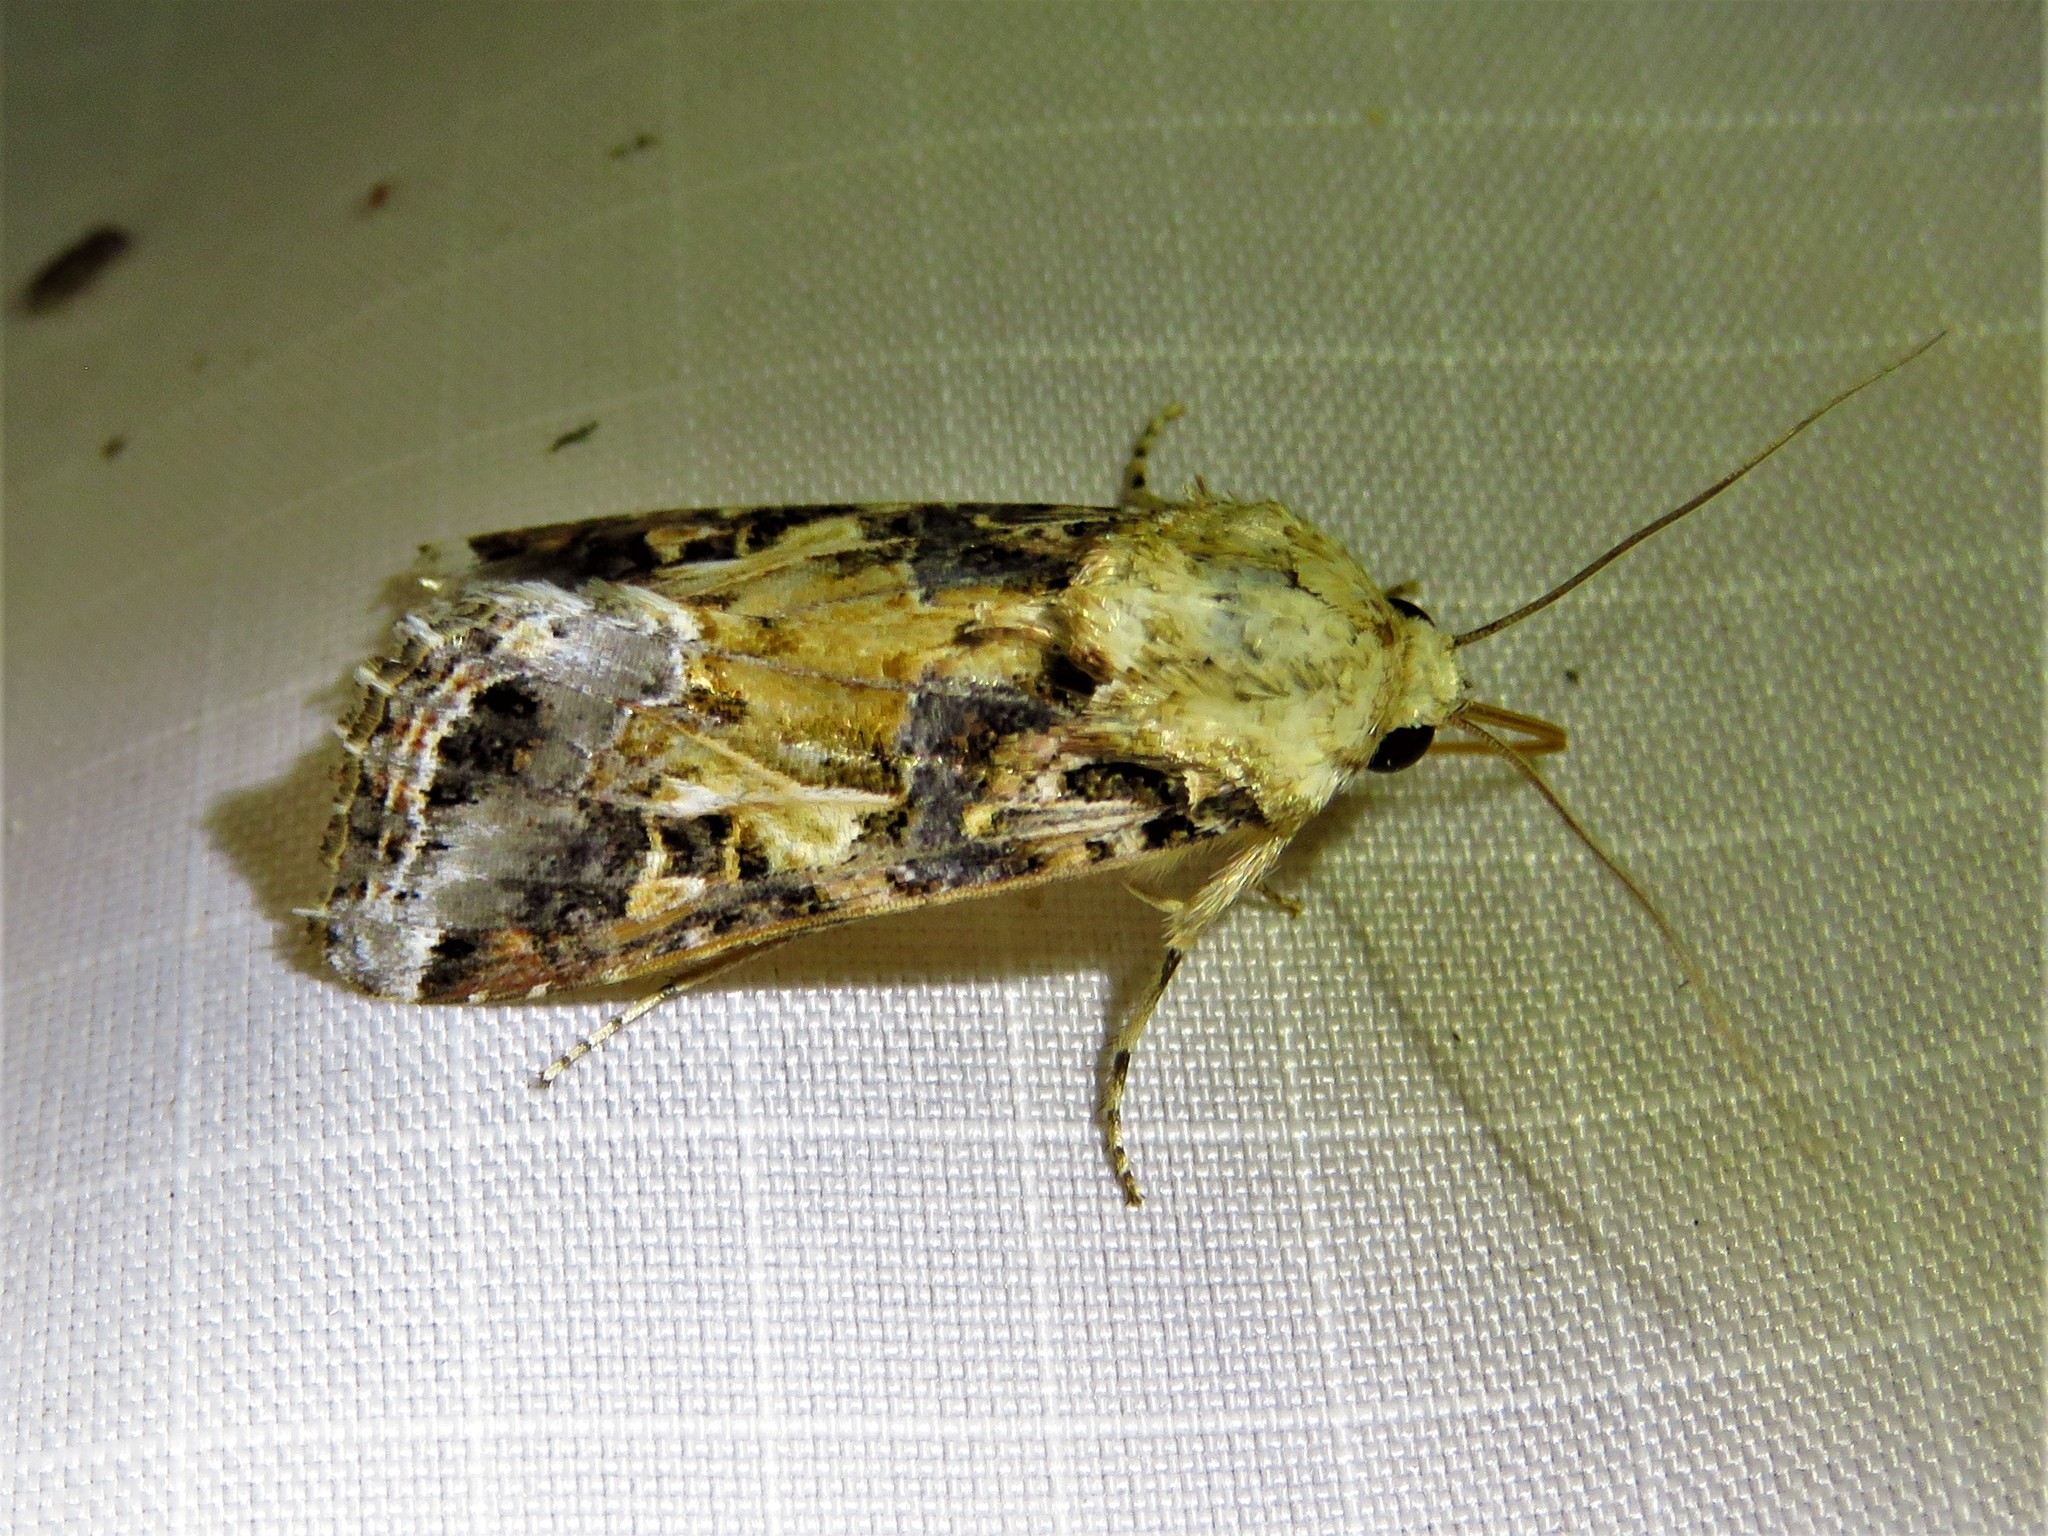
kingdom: Animalia
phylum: Arthropoda
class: Insecta
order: Lepidoptera
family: Noctuidae
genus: Spodoptera
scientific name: Spodoptera ornithogalli
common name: Yellow-striped armyworm
